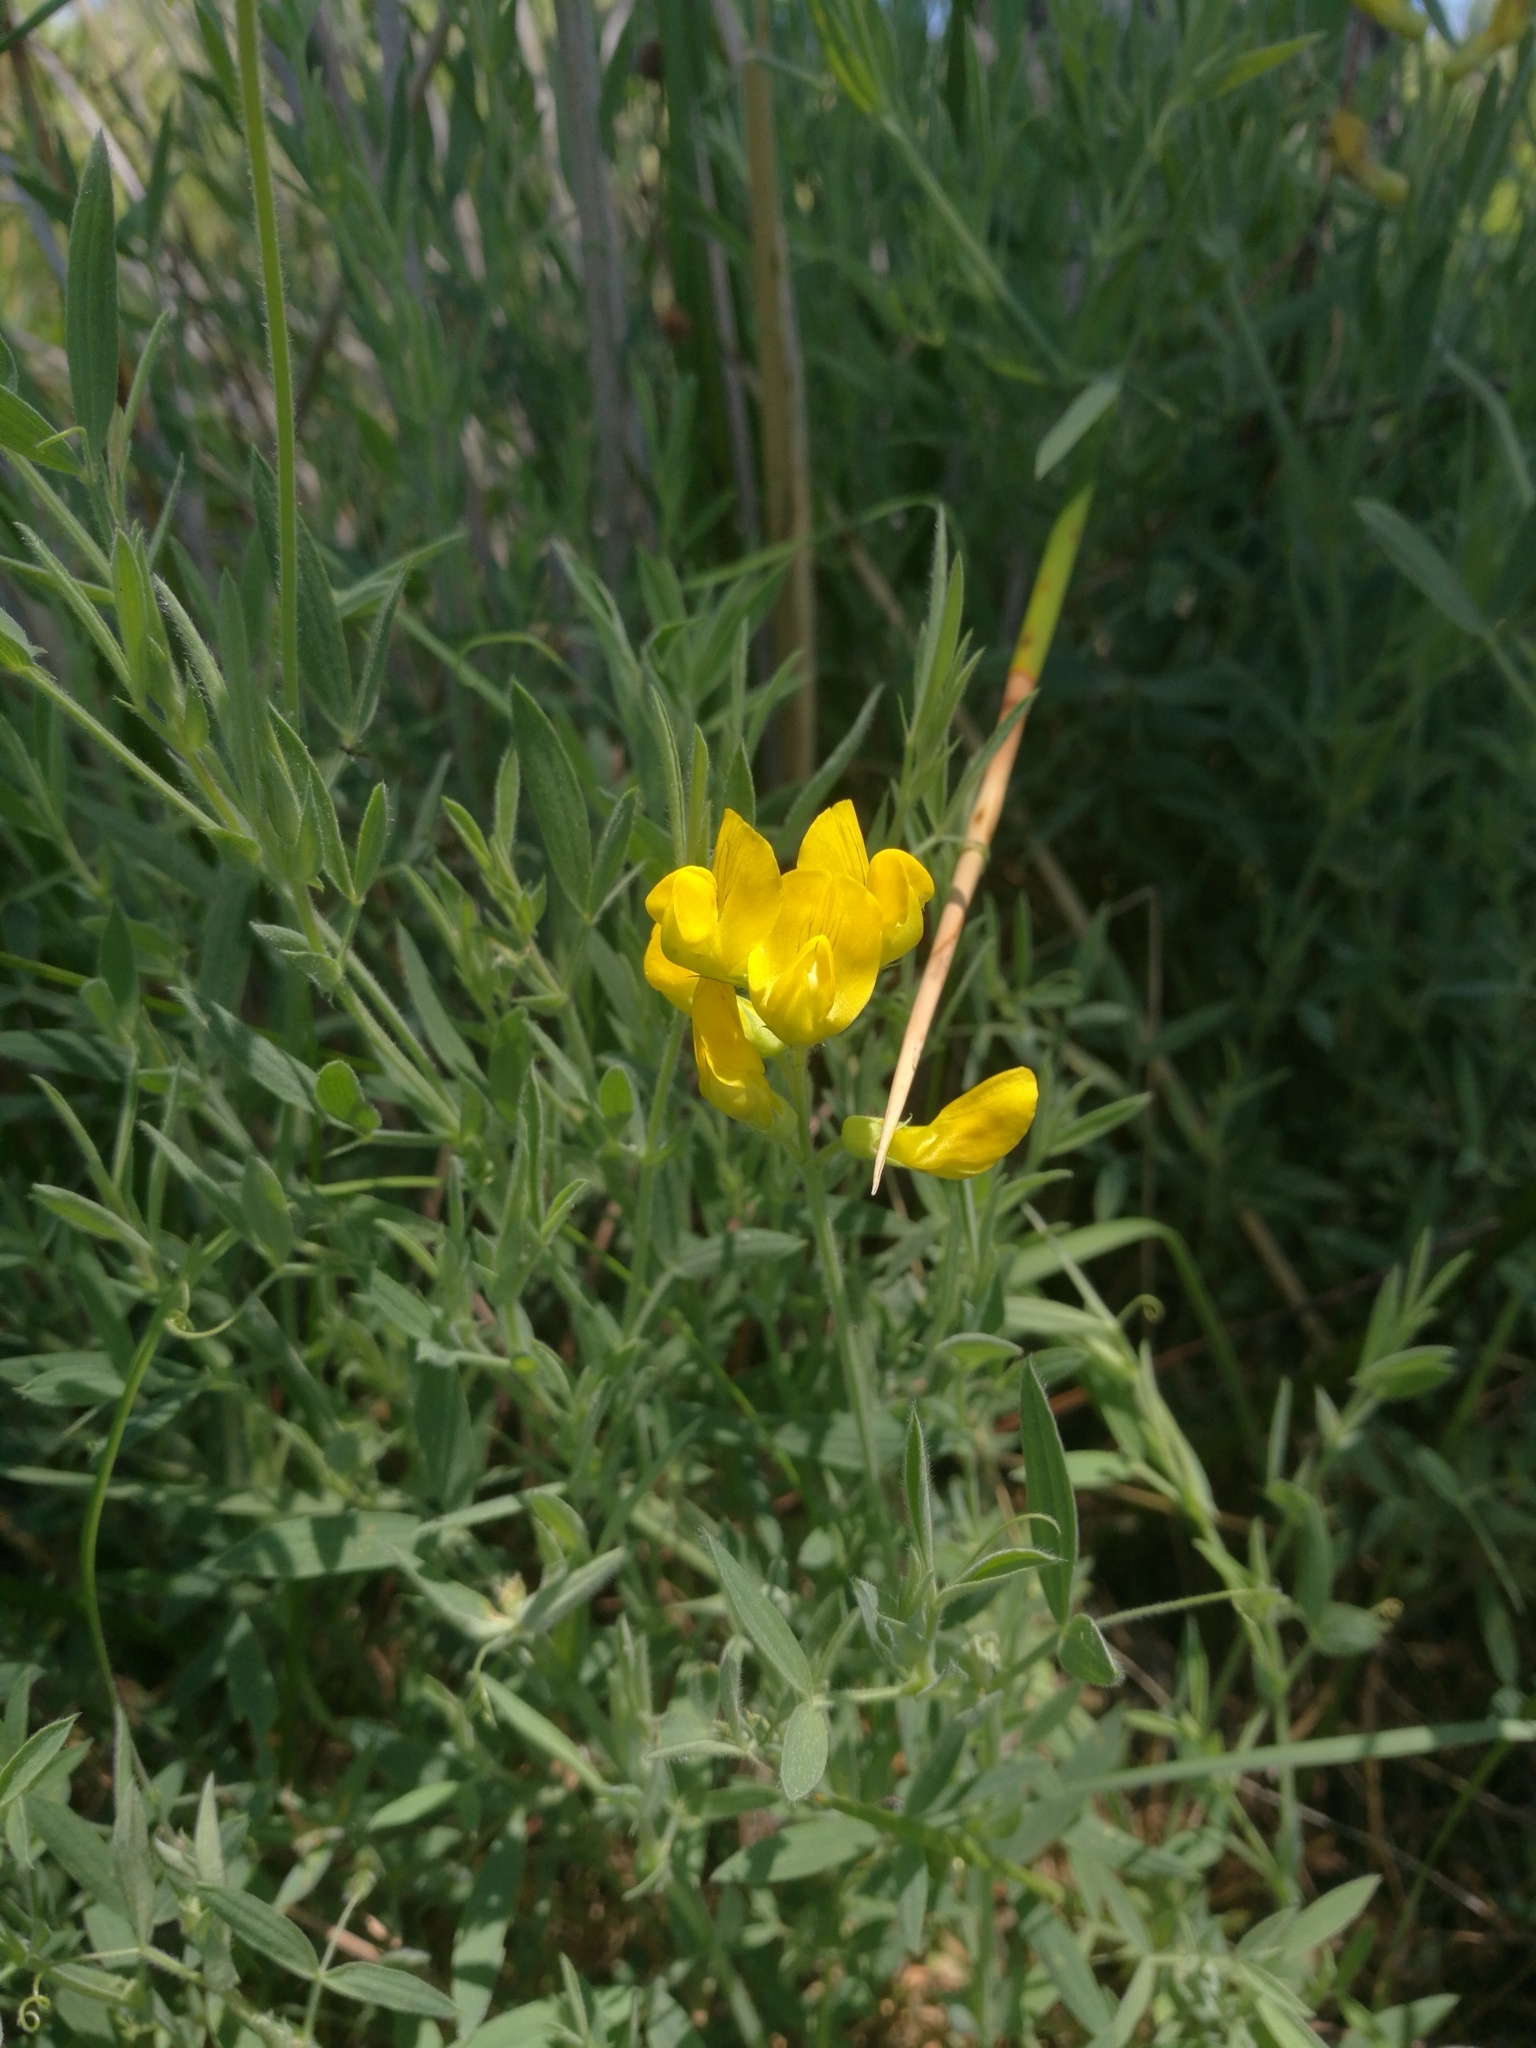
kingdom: Plantae
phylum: Tracheophyta
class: Magnoliopsida
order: Fabales
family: Fabaceae
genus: Lathyrus
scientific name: Lathyrus pratensis
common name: Meadow vetchling
